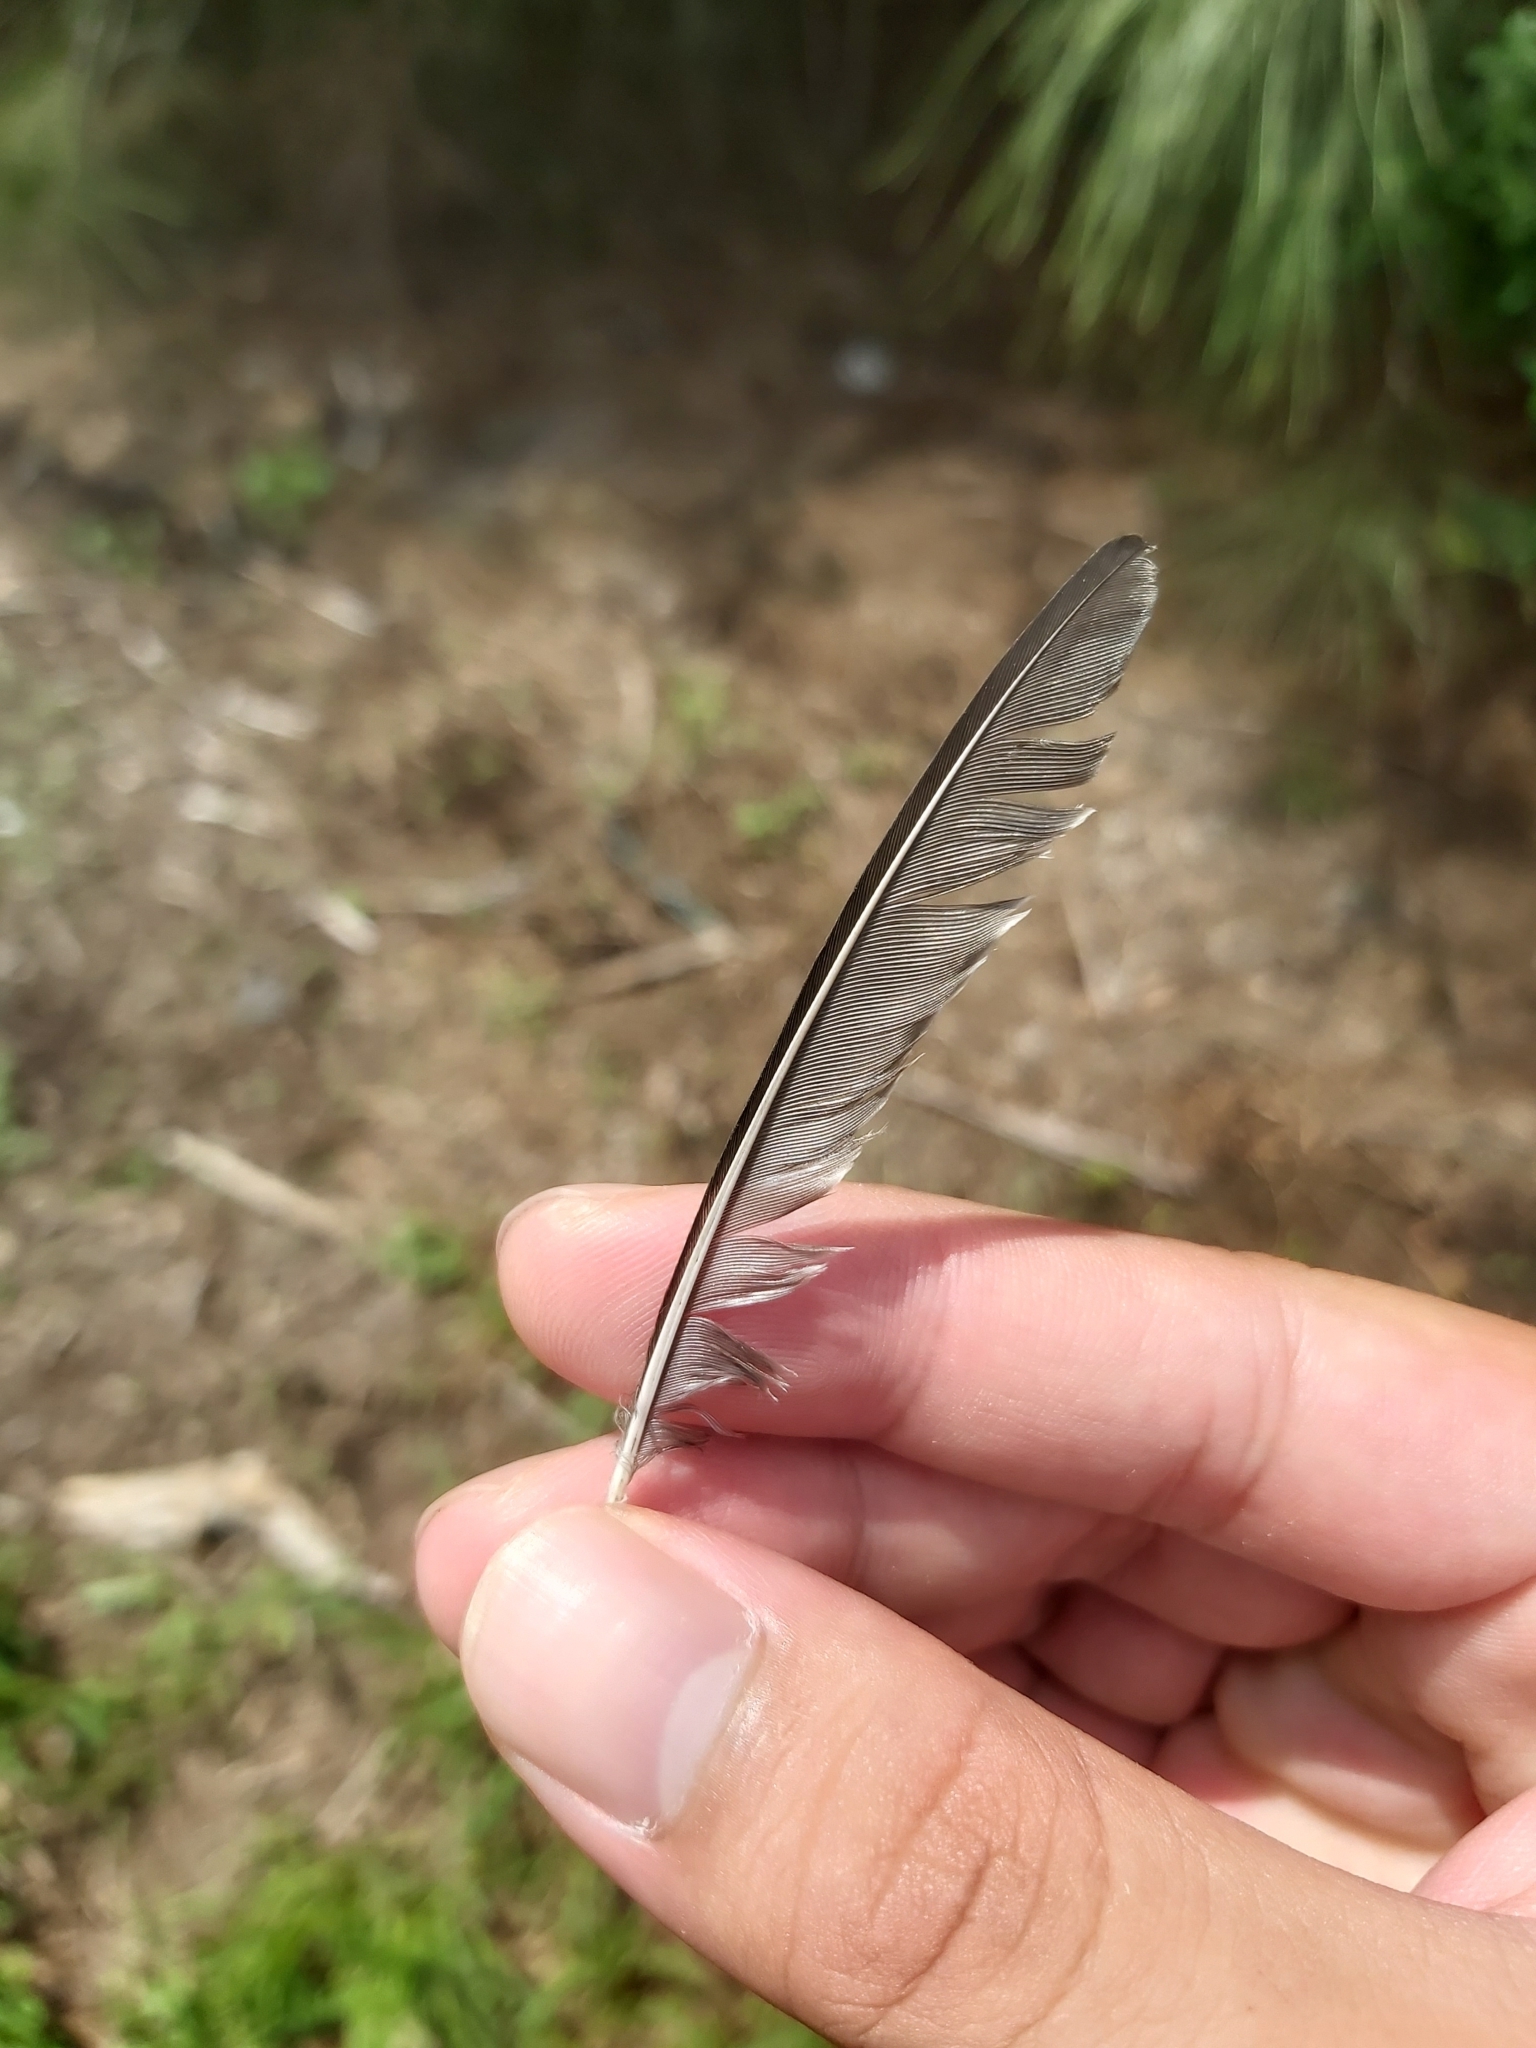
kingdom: Animalia
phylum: Chordata
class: Aves
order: Passeriformes
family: Hirundinidae
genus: Hirundo
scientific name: Hirundo neoxena
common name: Welcome swallow
